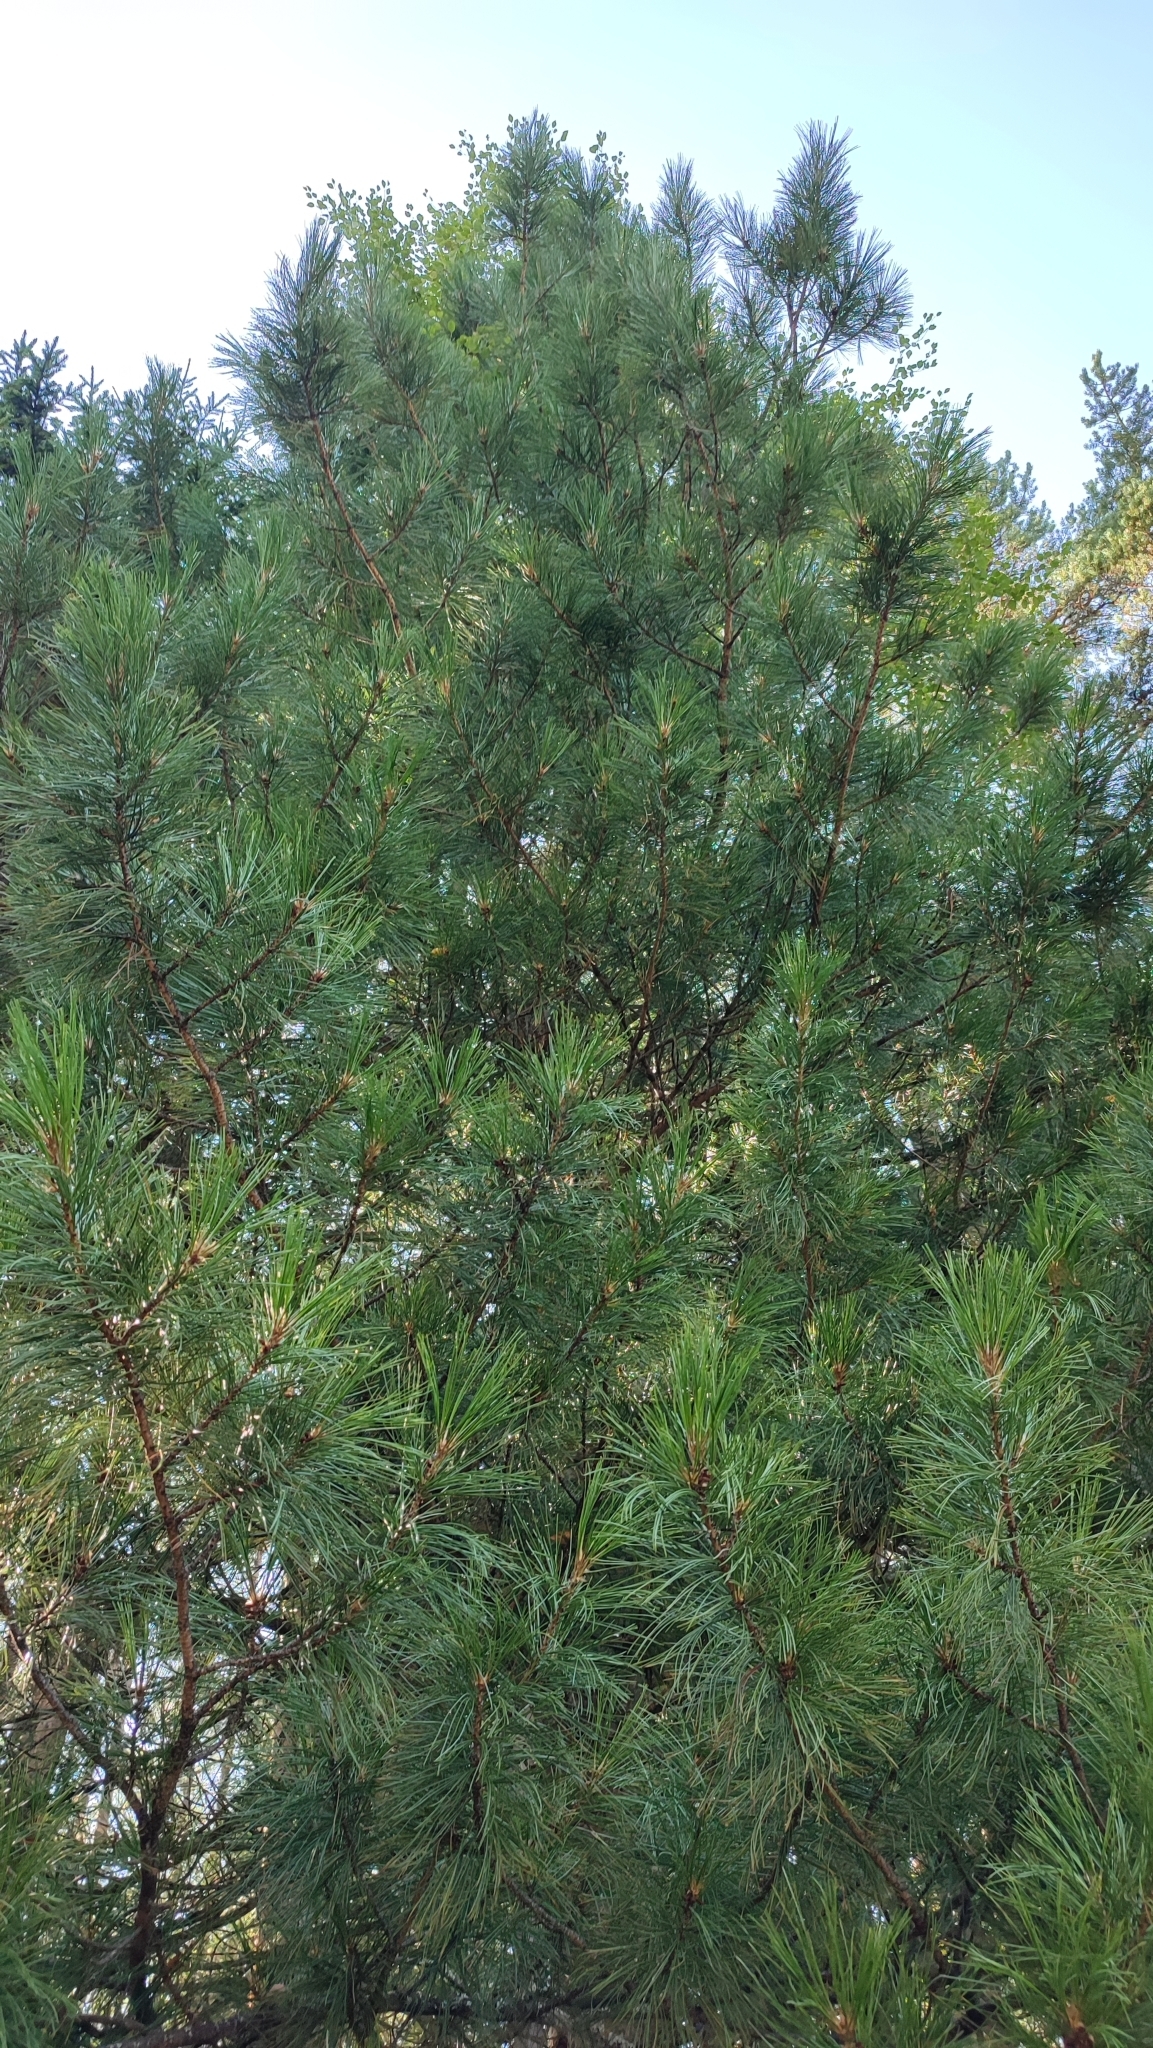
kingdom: Plantae
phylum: Tracheophyta
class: Pinopsida
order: Pinales
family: Pinaceae
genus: Pinus
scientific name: Pinus sibirica
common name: Siberian pine
